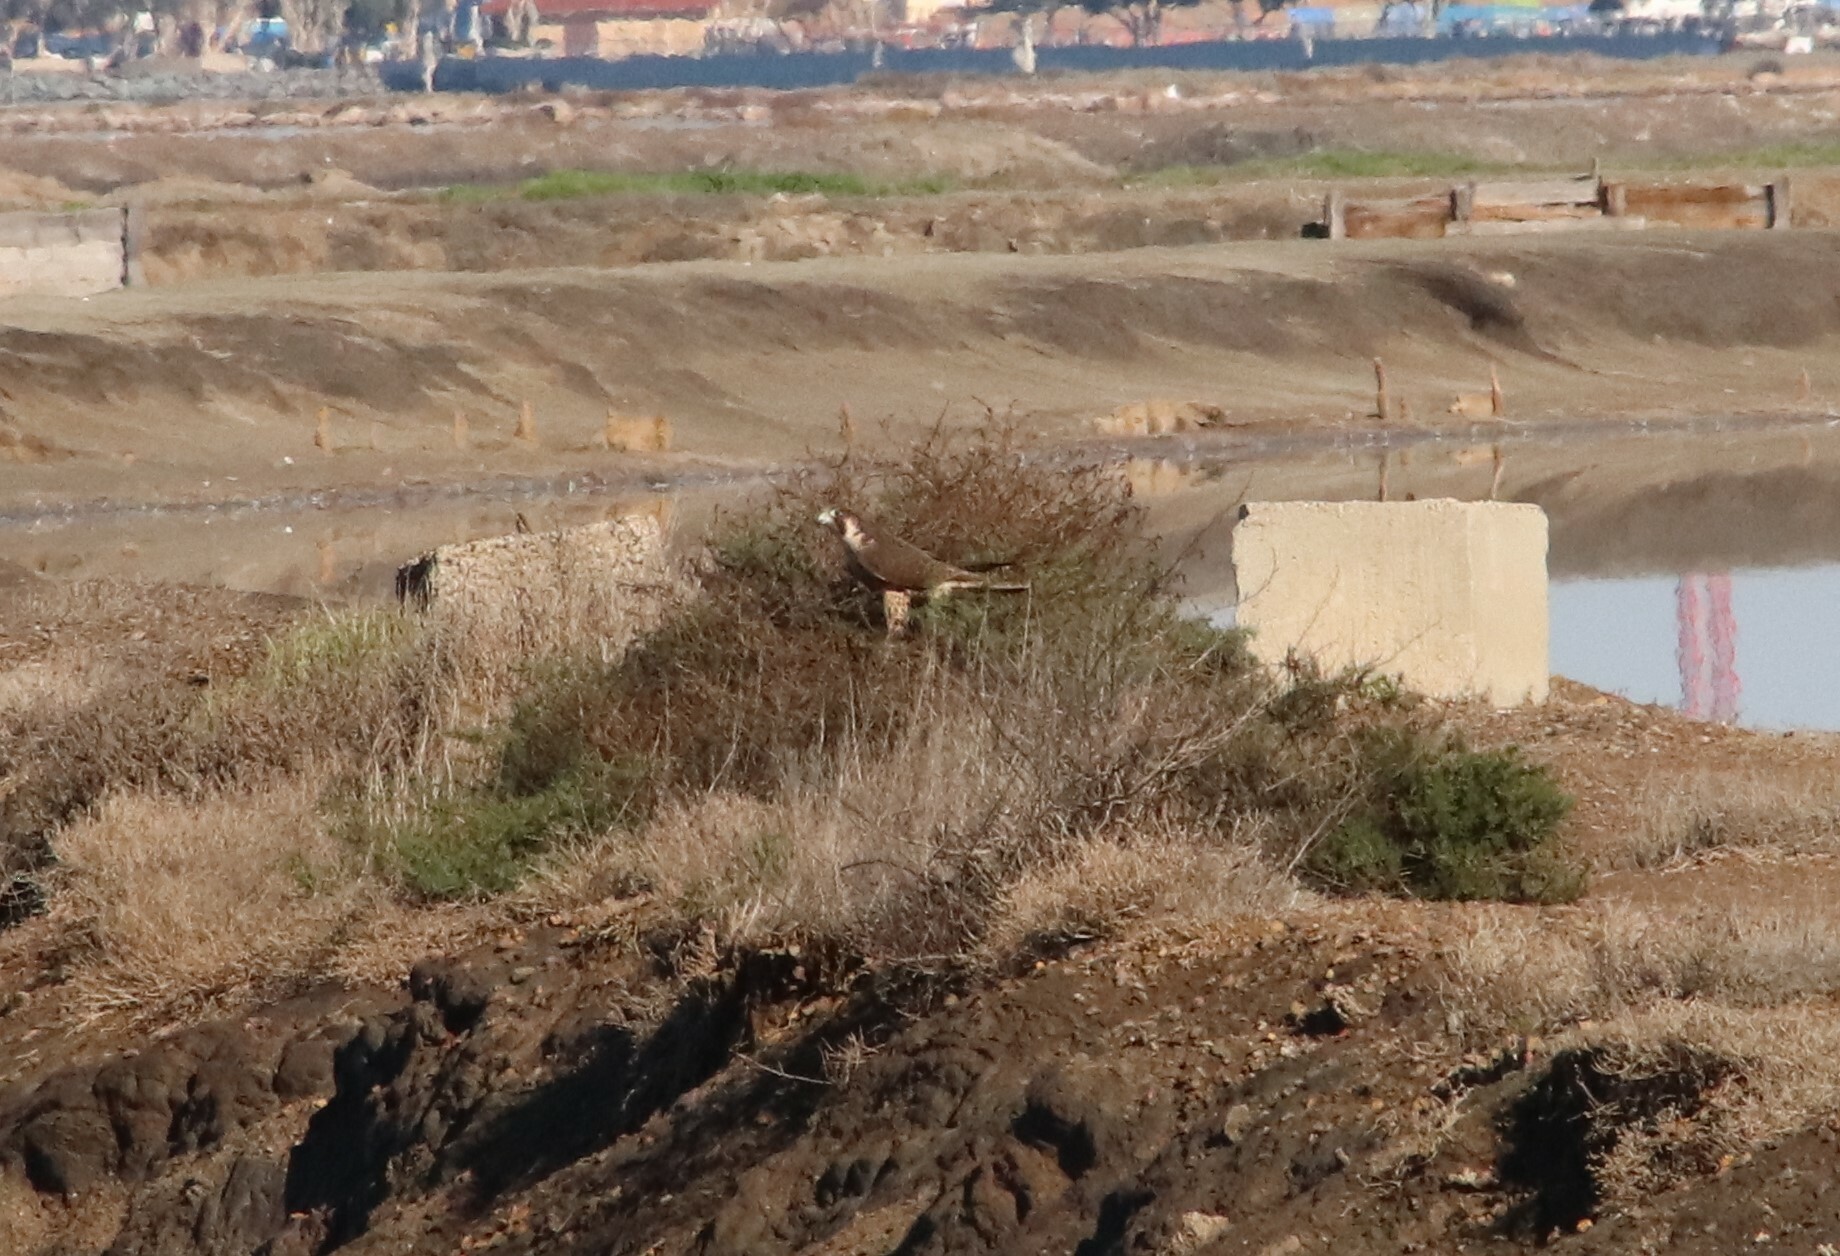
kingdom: Animalia
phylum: Chordata
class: Aves
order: Falconiformes
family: Falconidae
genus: Falco
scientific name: Falco peregrinus
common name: Peregrine falcon
